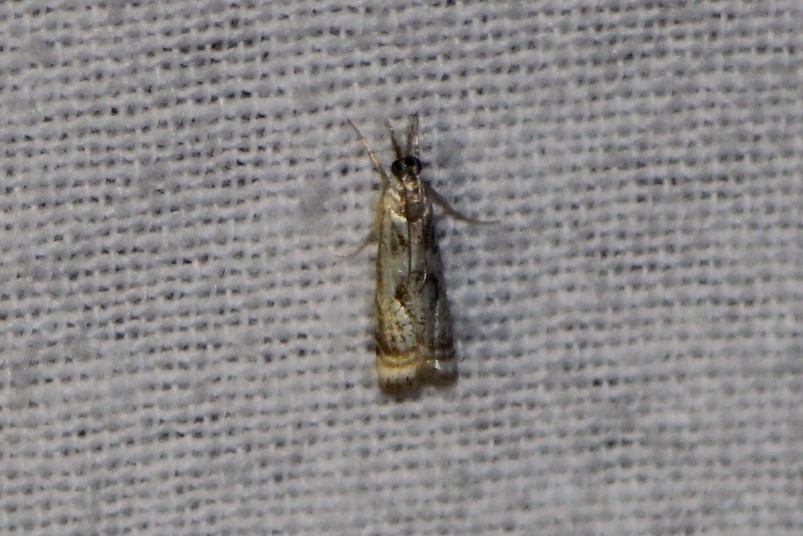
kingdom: Animalia
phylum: Arthropoda
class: Insecta
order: Lepidoptera
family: Crambidae
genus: Microcrambus
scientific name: Microcrambus elegans
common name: Elegant grass-veneer
